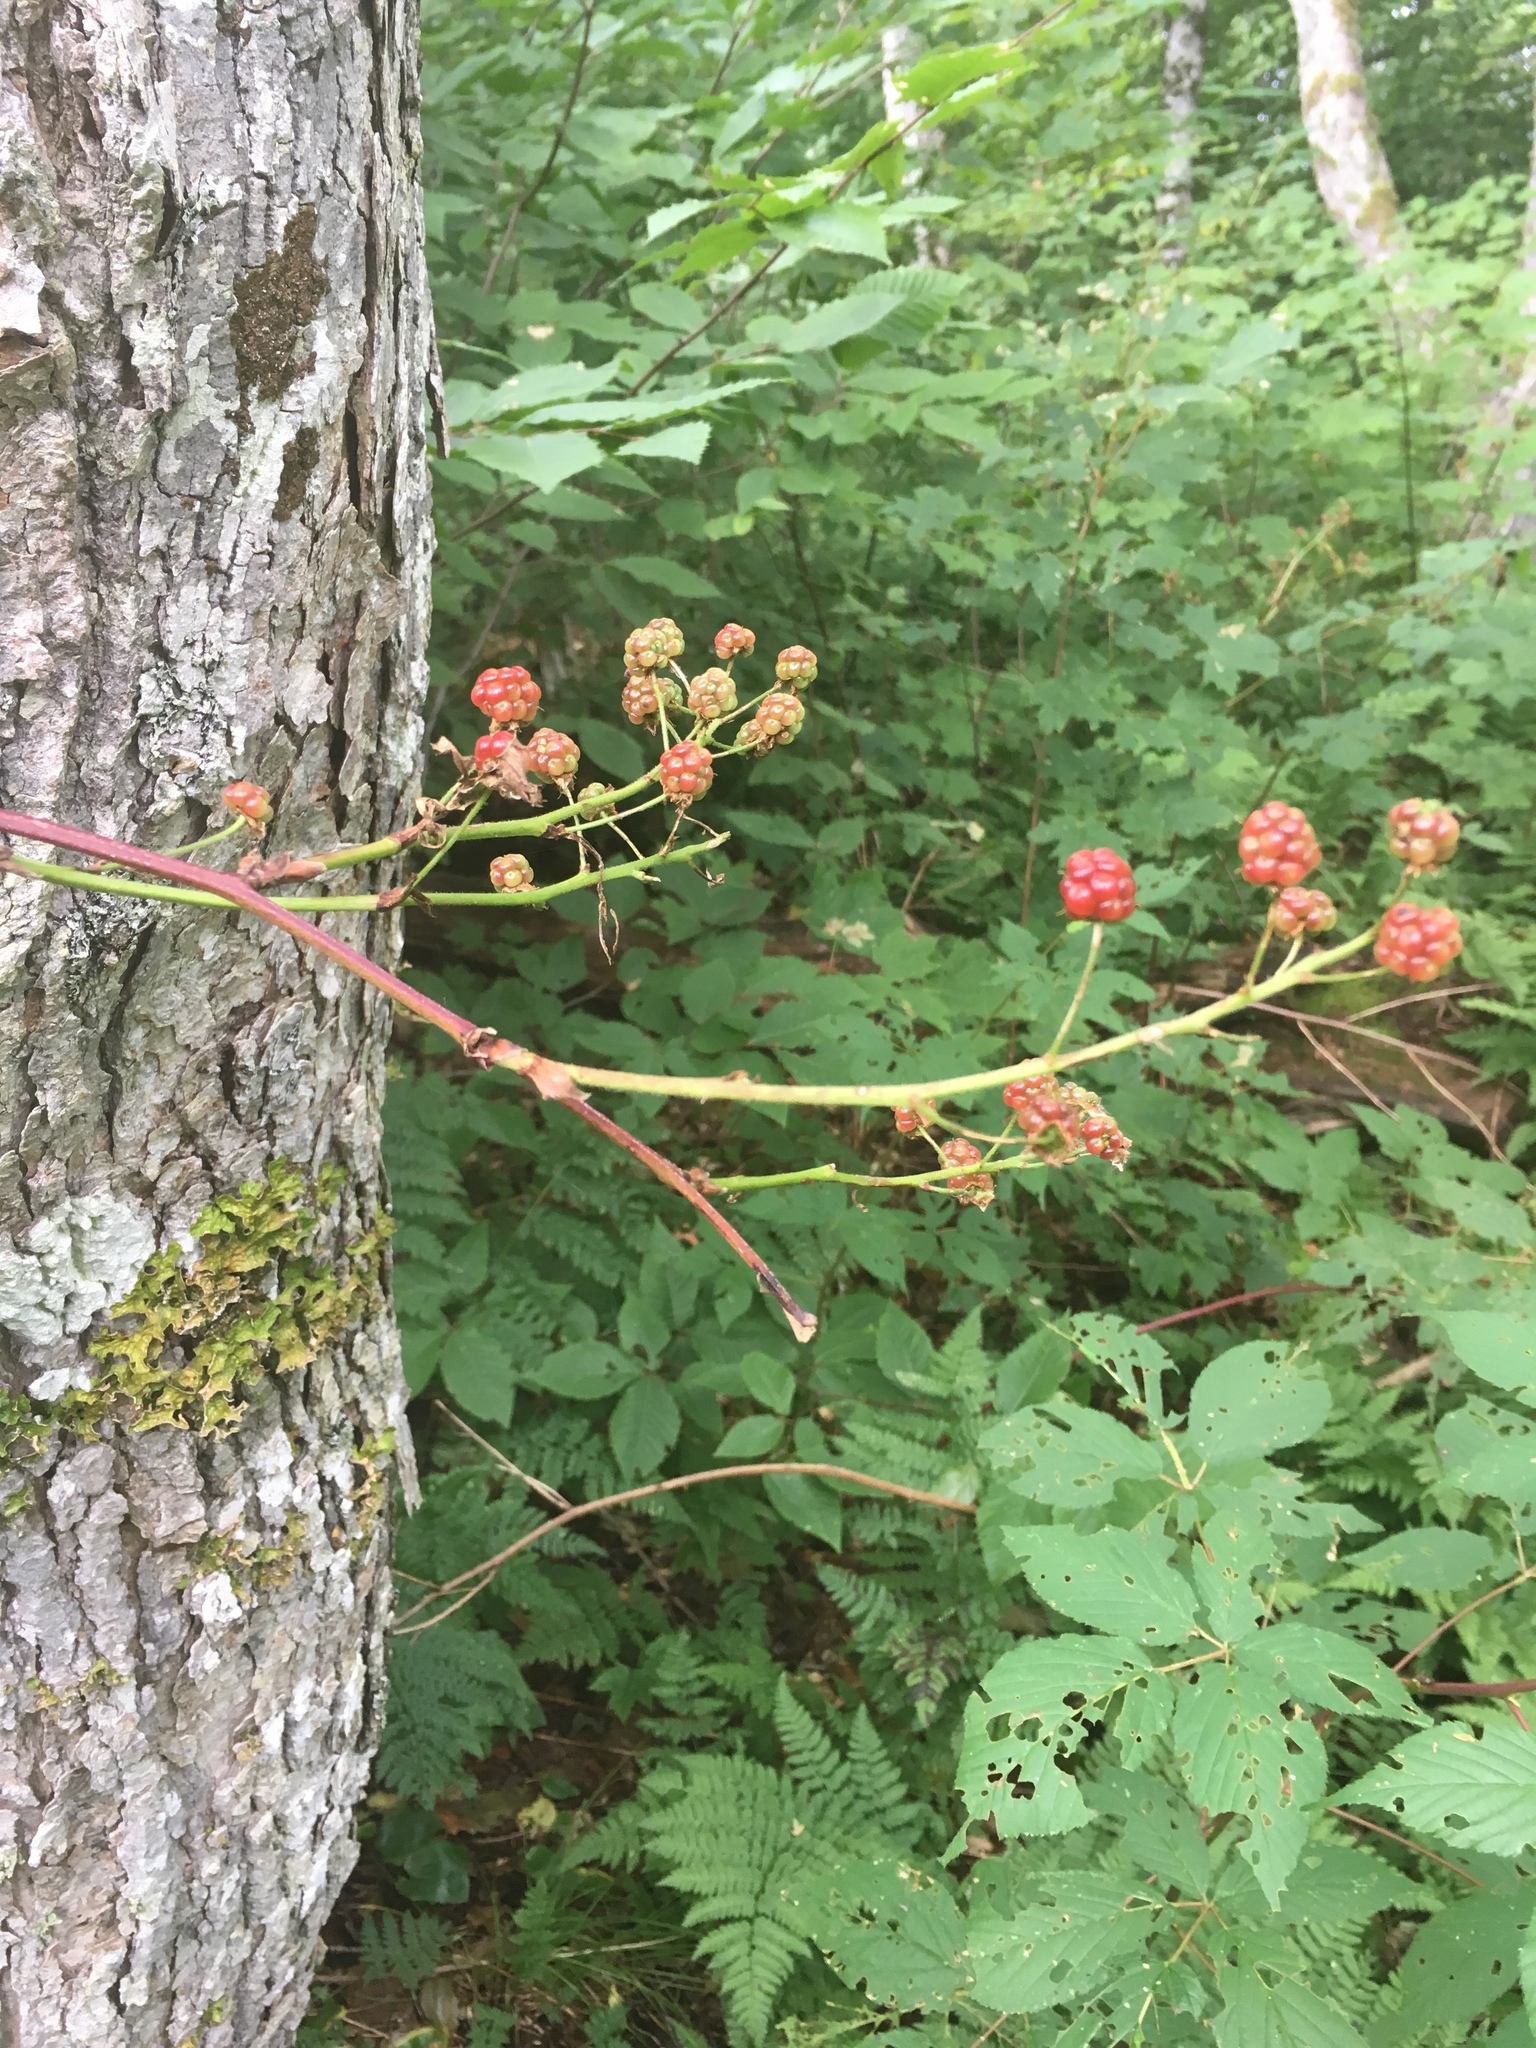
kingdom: Plantae
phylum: Tracheophyta
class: Magnoliopsida
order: Rosales
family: Rosaceae
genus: Rubus
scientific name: Rubus allegheniensis
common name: Allegheny blackberry
